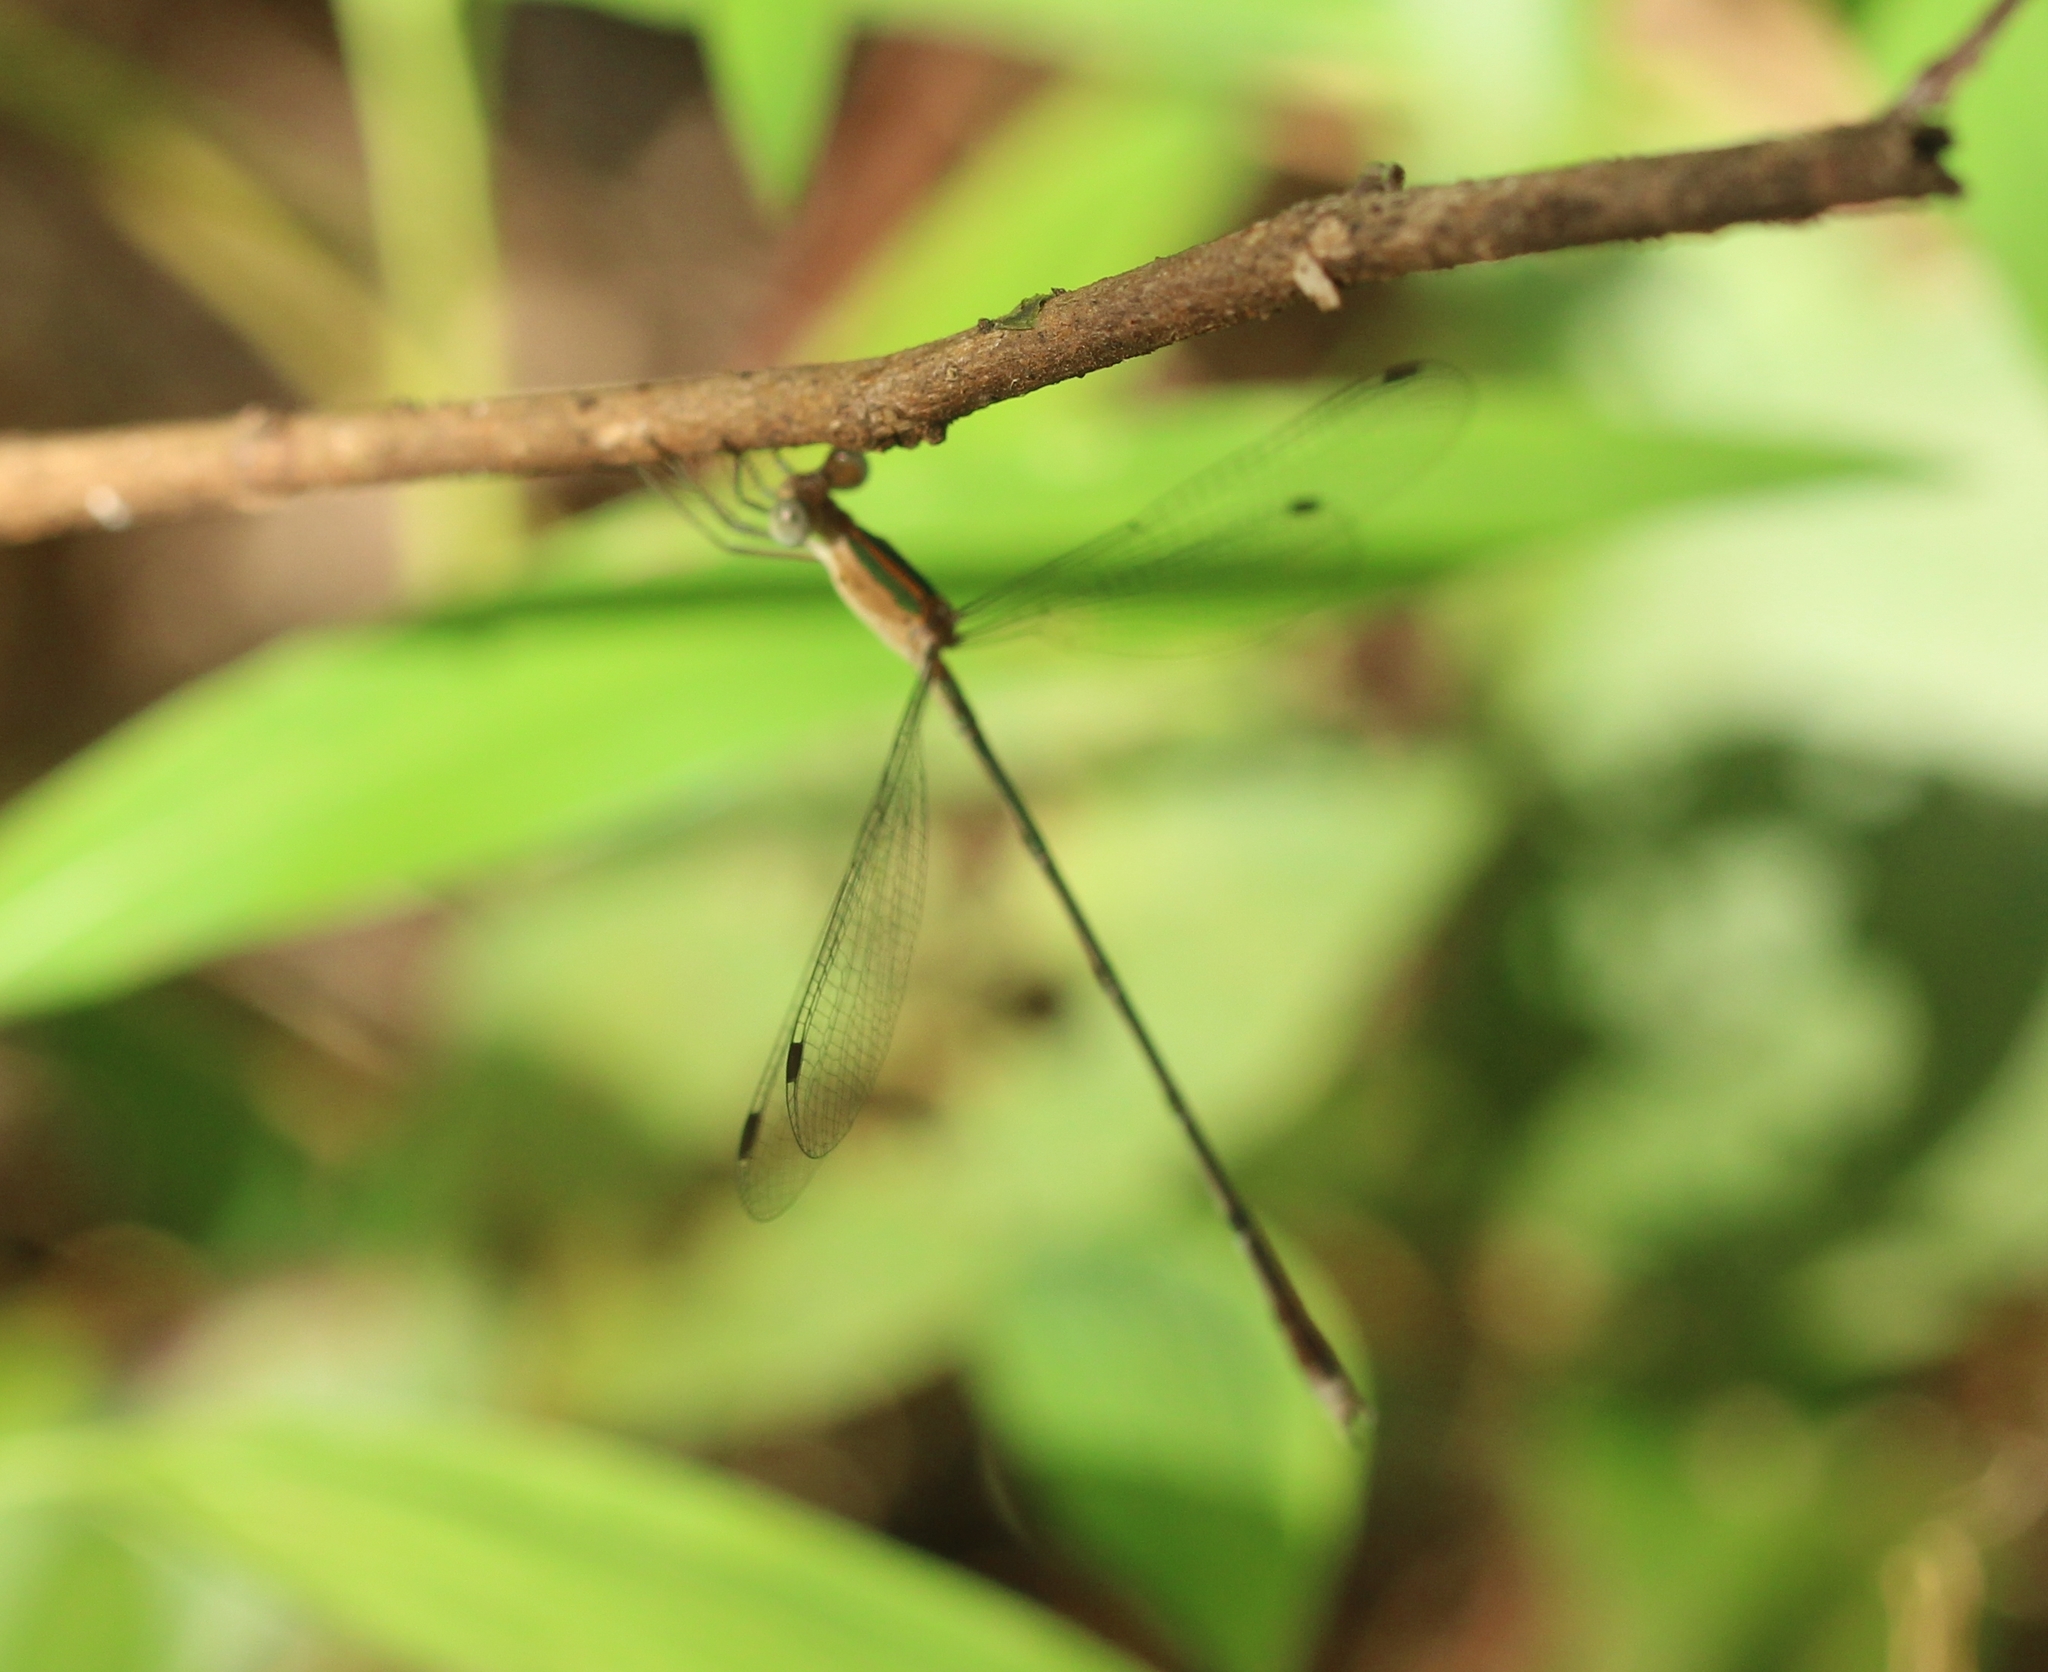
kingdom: Animalia
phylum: Arthropoda
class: Insecta
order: Odonata
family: Lestidae
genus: Lestes
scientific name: Lestes elatus
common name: Emerald spreadwing
